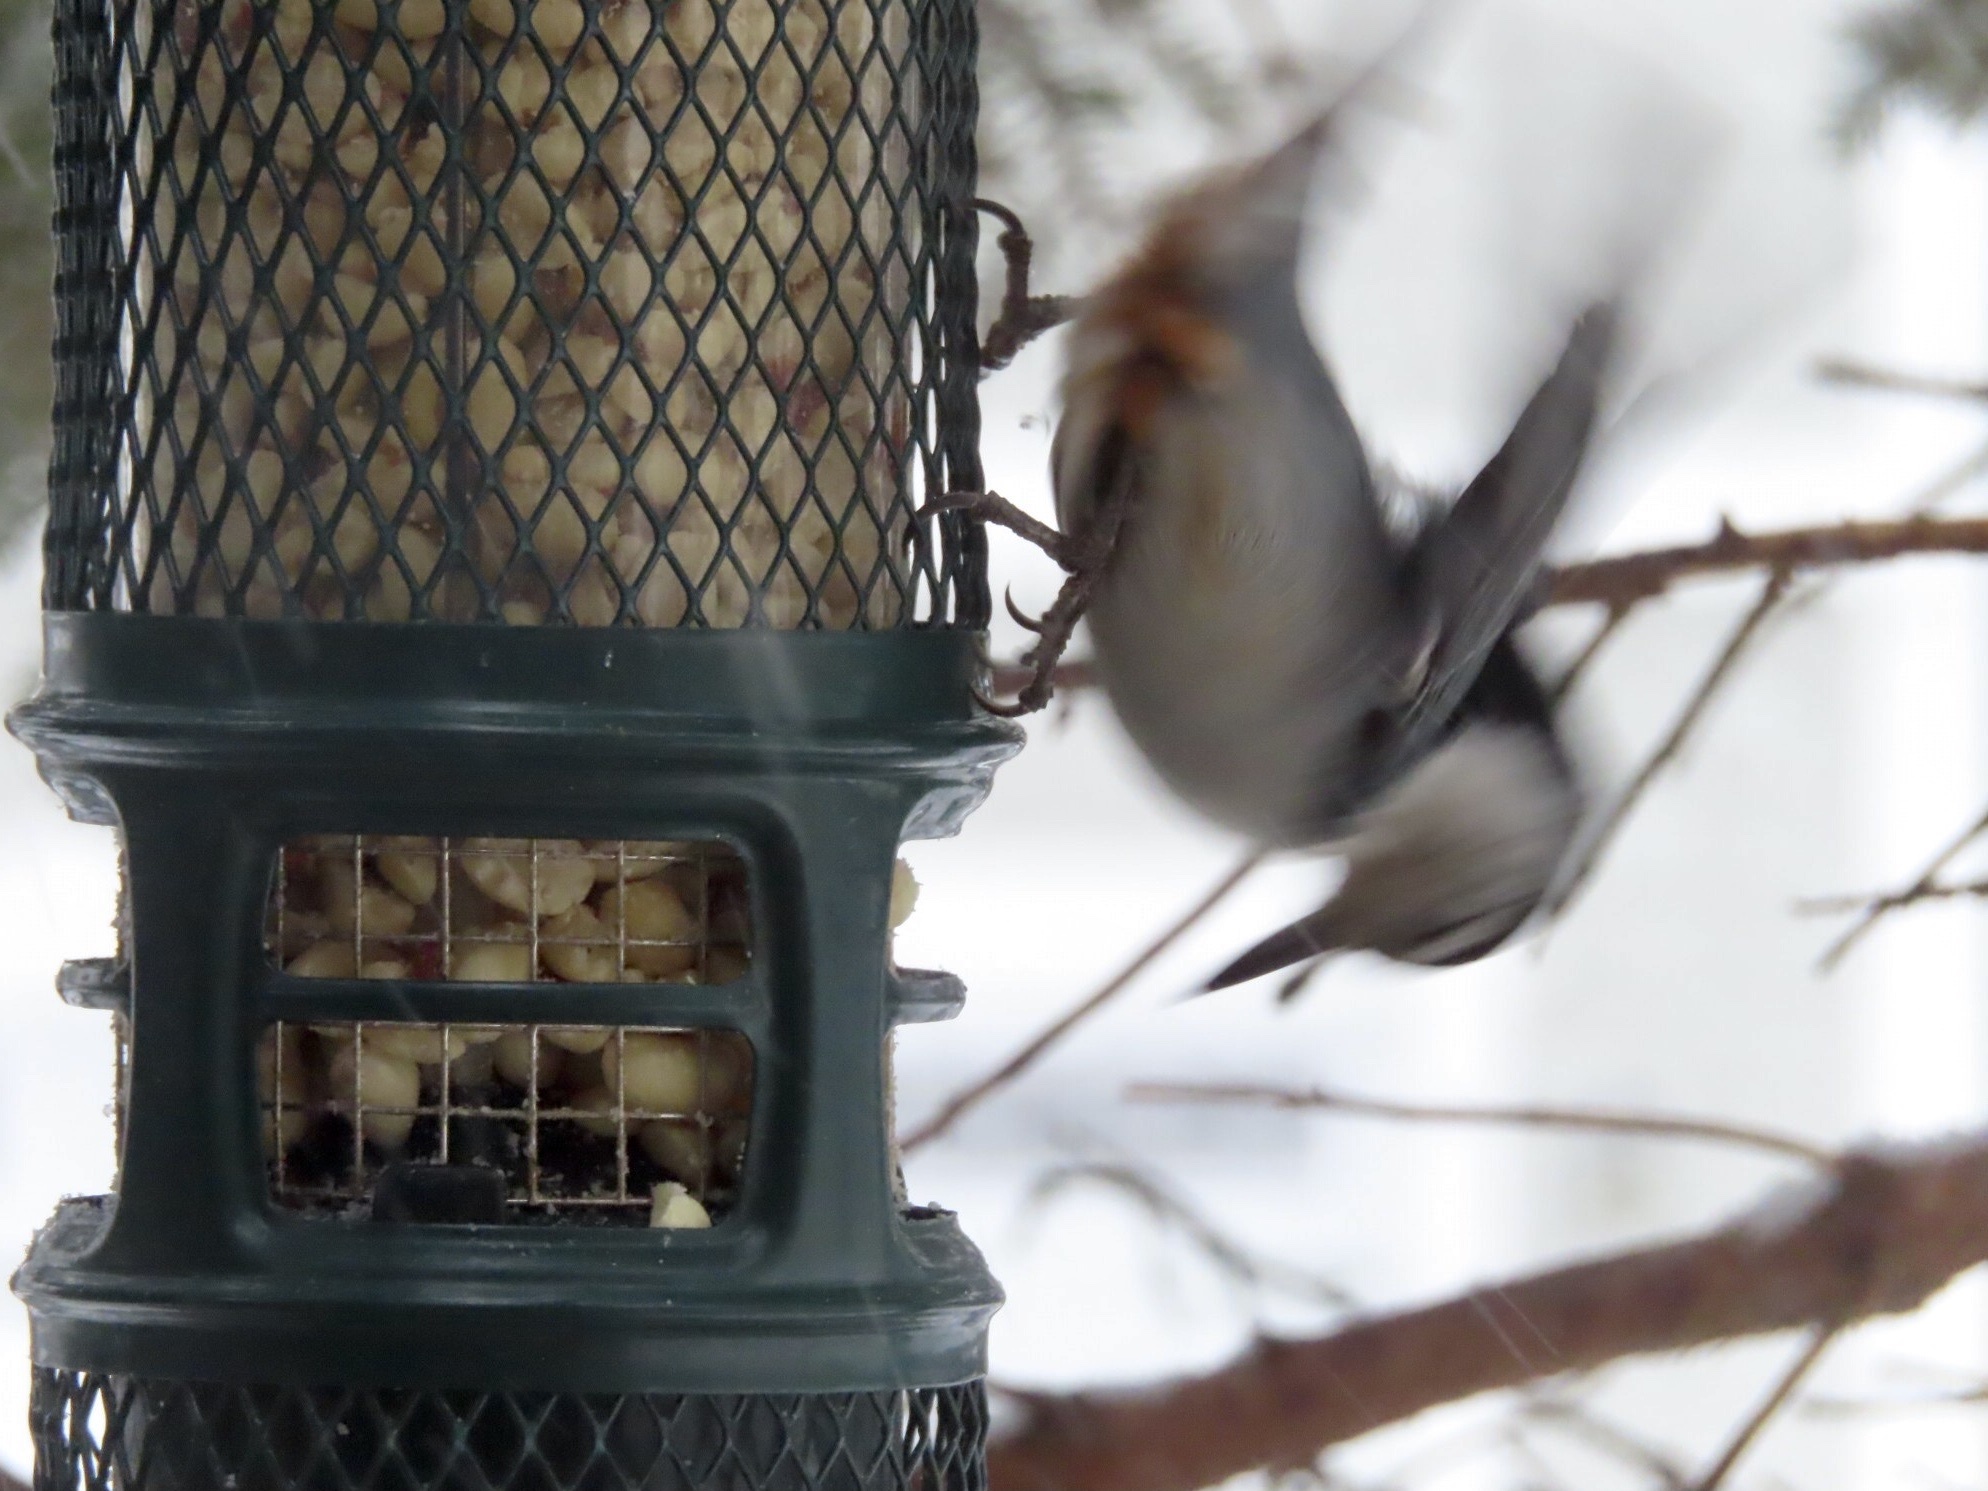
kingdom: Animalia
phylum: Chordata
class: Aves
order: Passeriformes
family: Sittidae
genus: Sitta
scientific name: Sitta carolinensis
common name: White-breasted nuthatch
